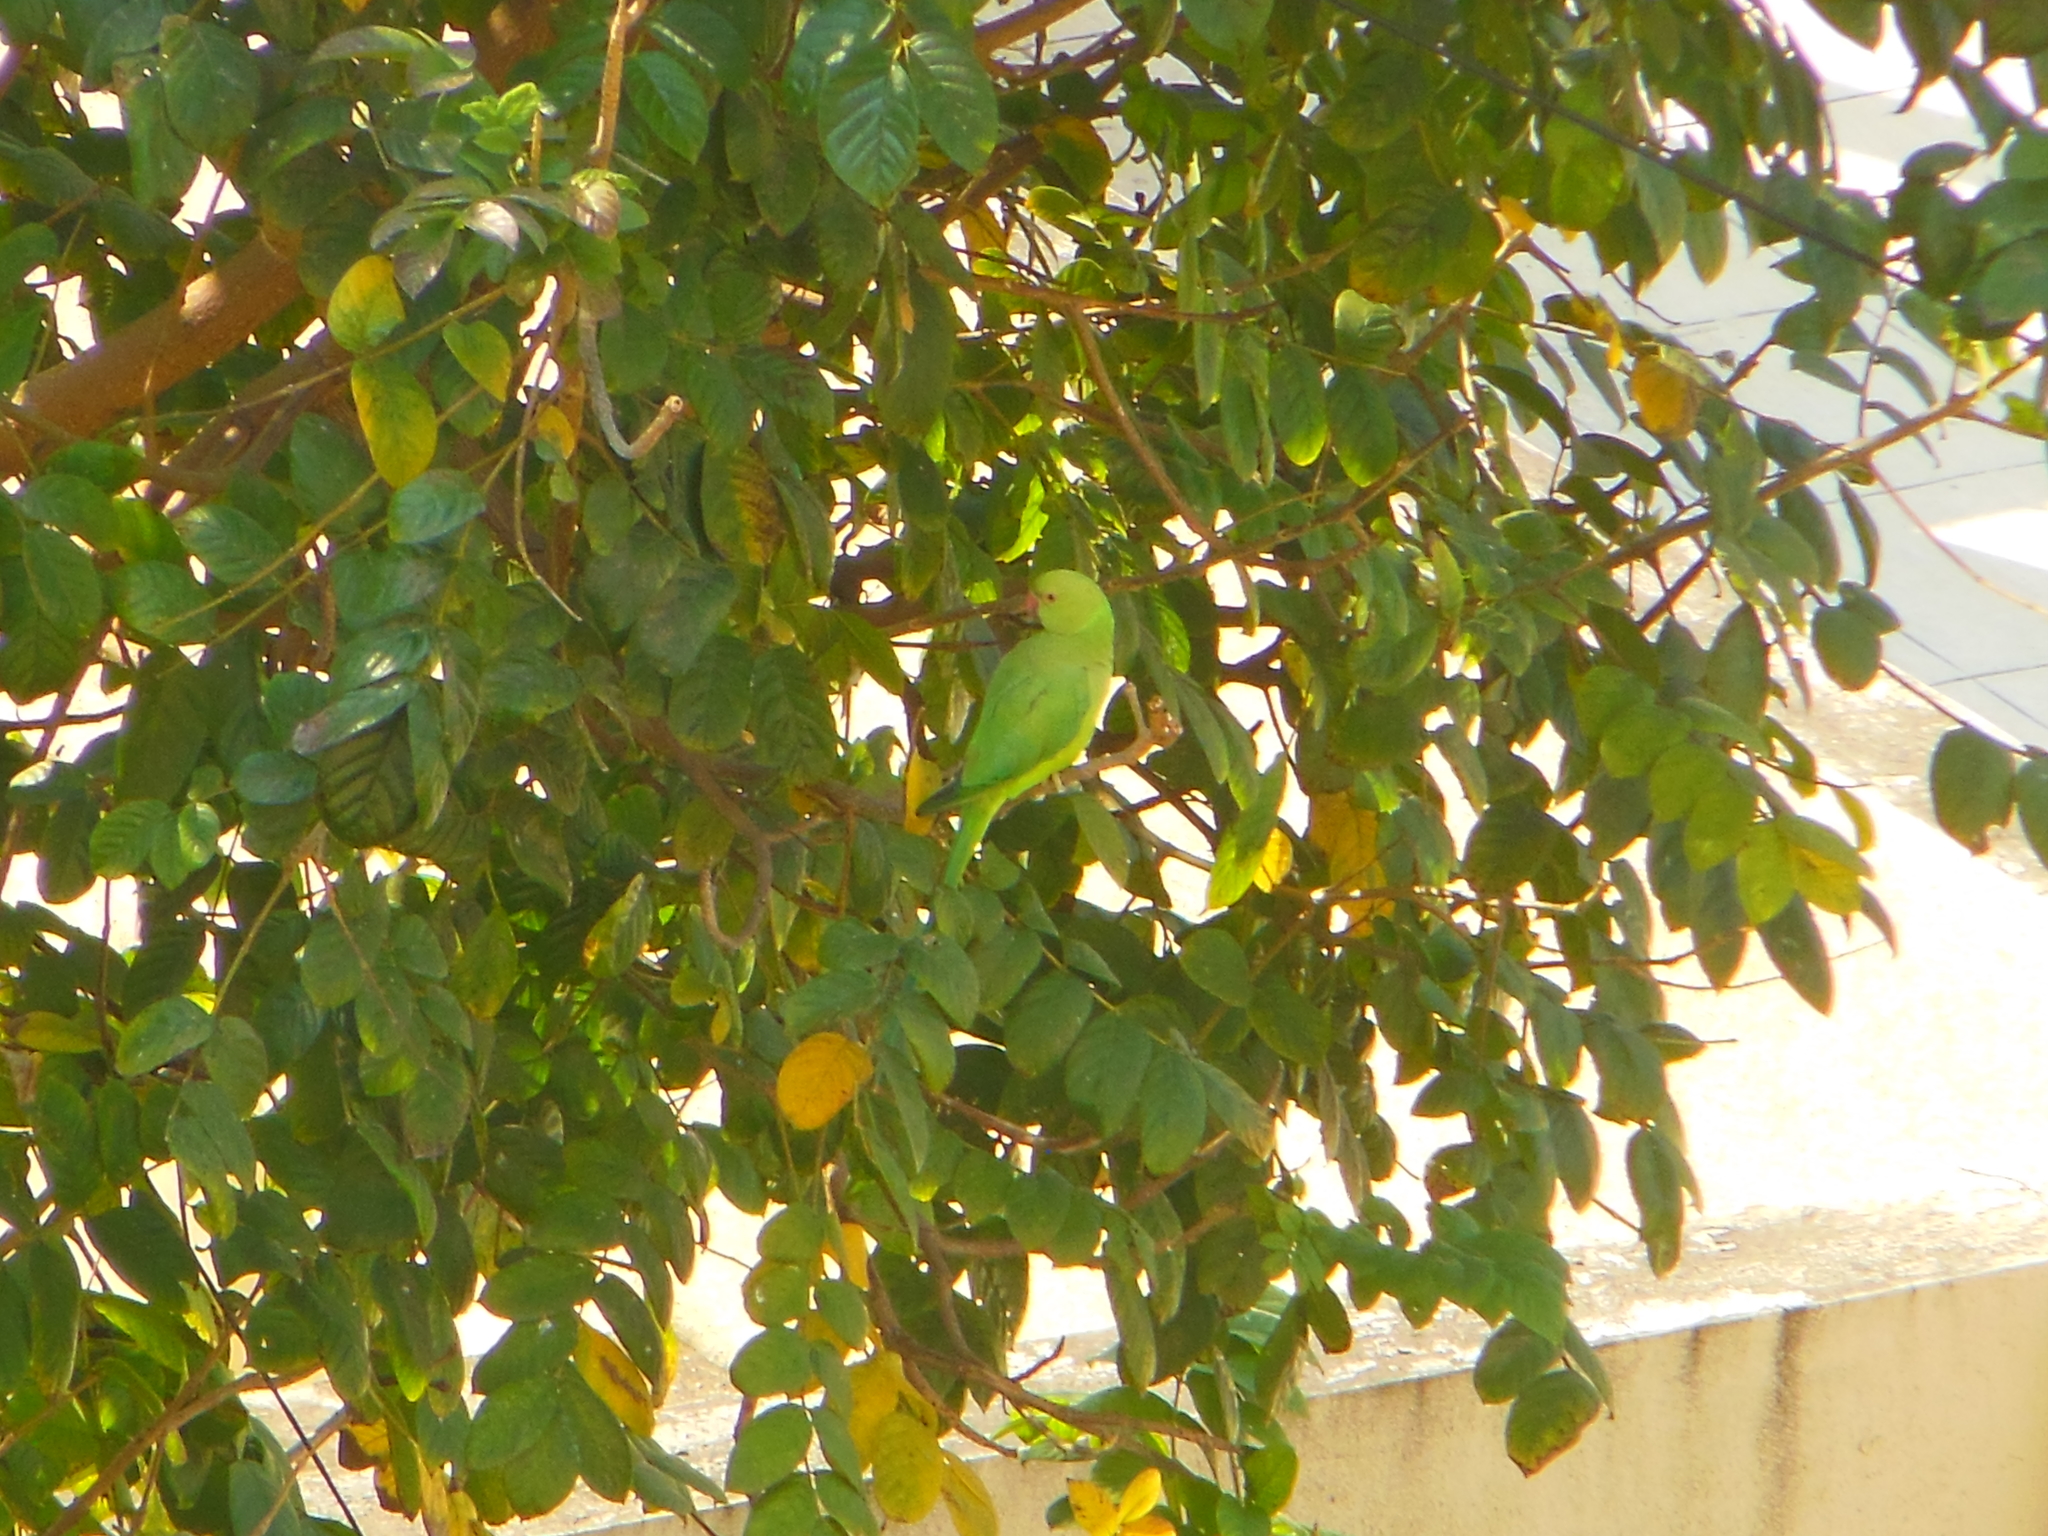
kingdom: Animalia
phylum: Chordata
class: Aves
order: Psittaciformes
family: Psittacidae
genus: Psittacula
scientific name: Psittacula krameri
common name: Rose-ringed parakeet
